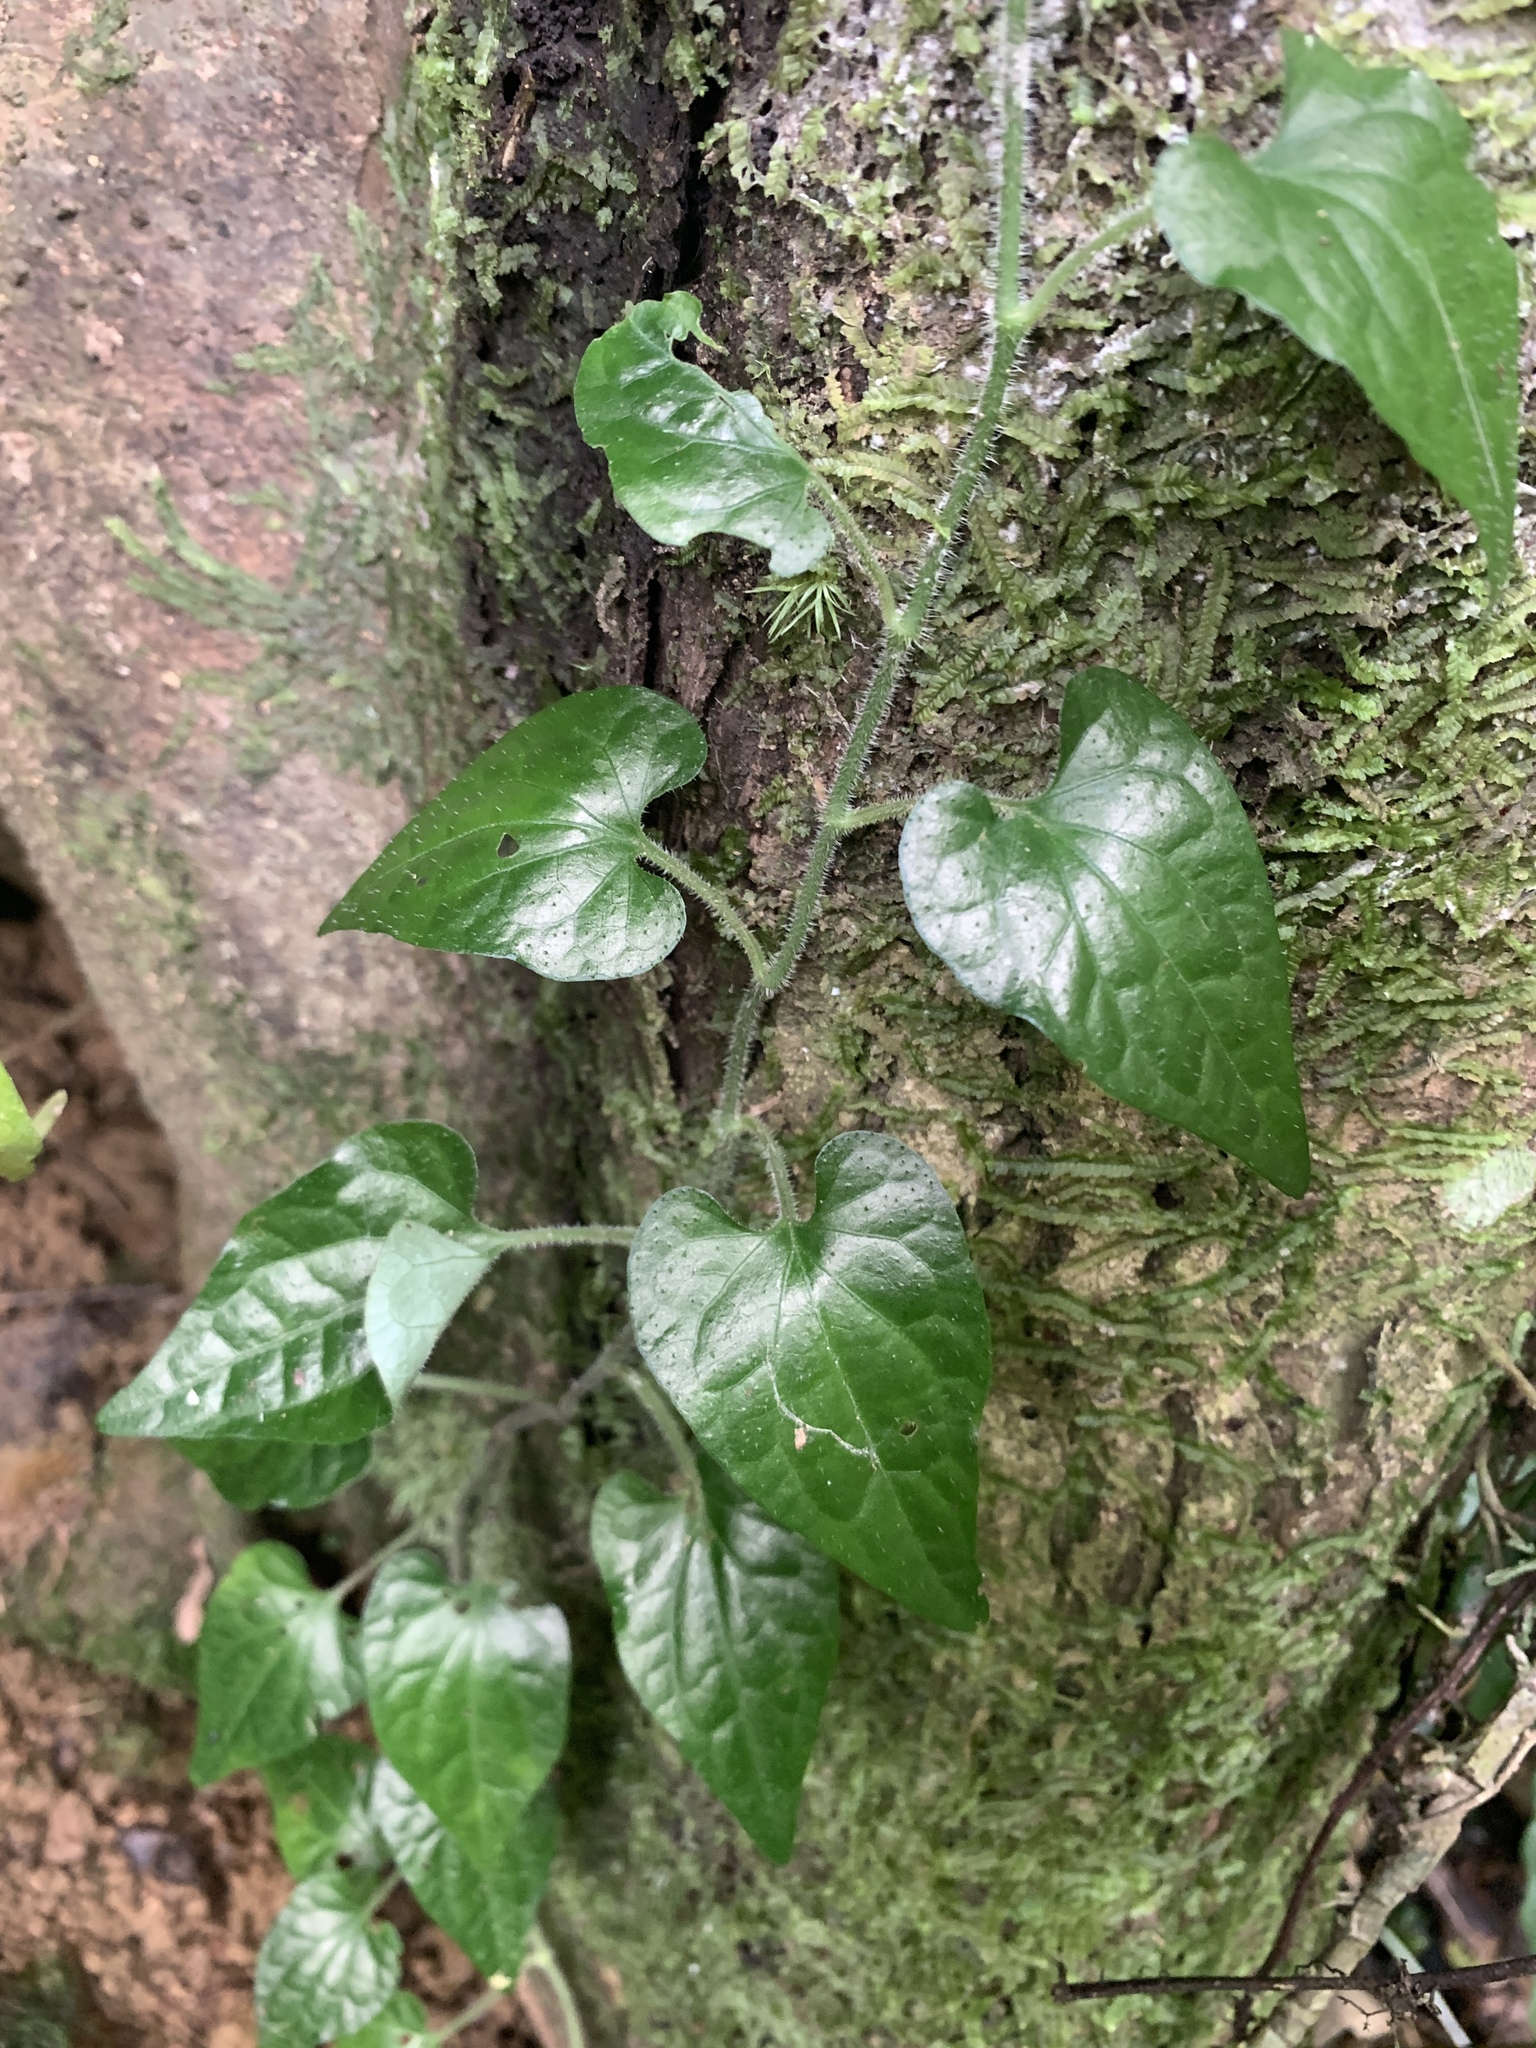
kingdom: Plantae
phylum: Tracheophyta
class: Magnoliopsida
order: Piperales
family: Piperaceae
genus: Piper
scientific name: Piper sintenense
